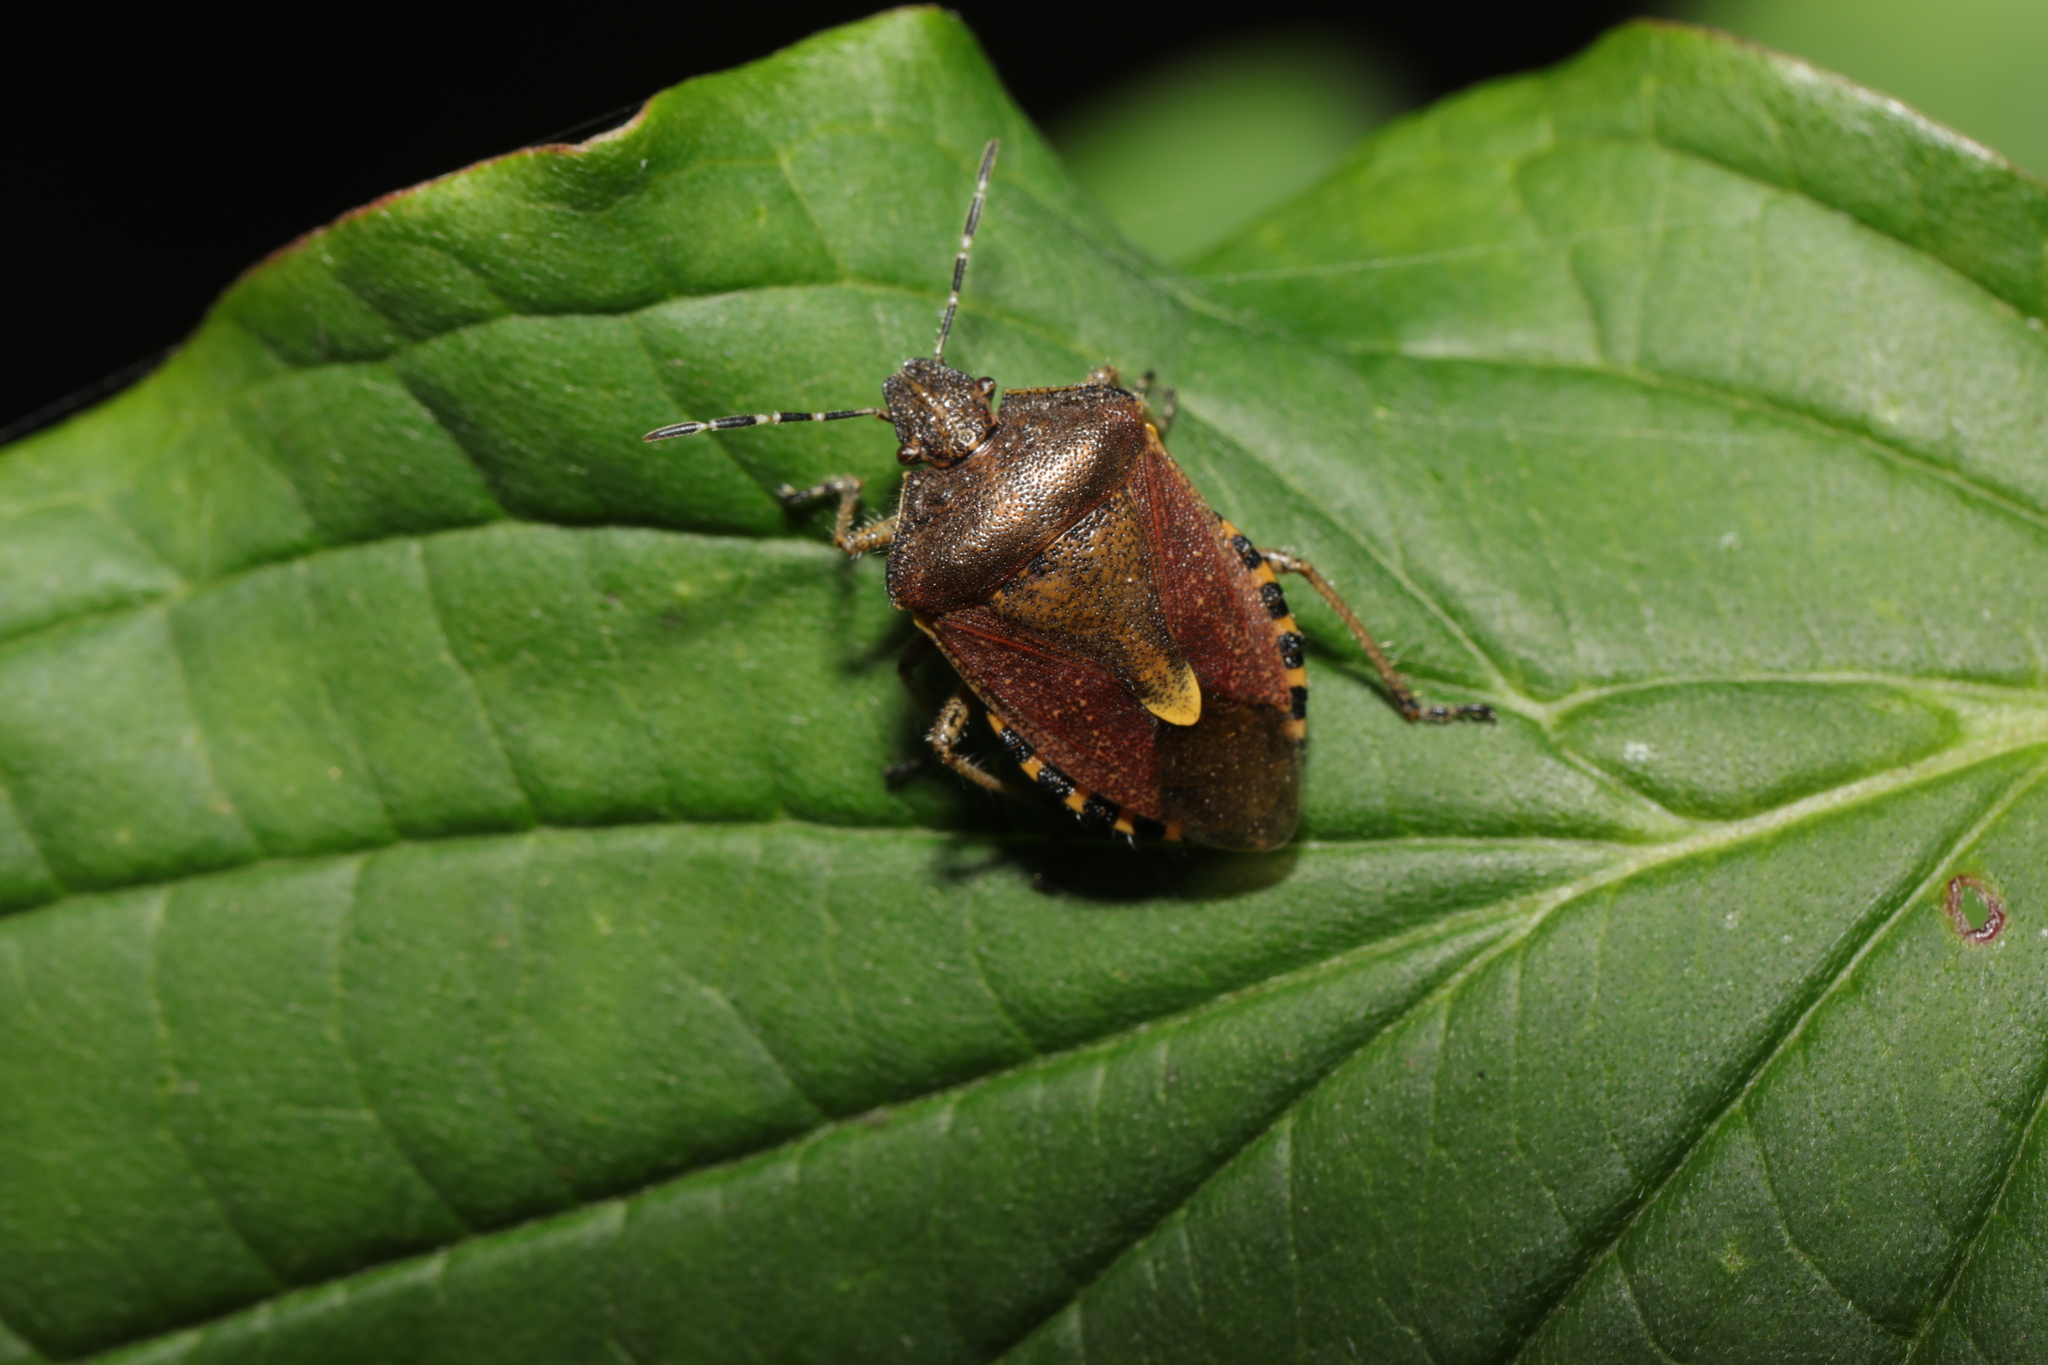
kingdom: Animalia
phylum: Arthropoda
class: Insecta
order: Hemiptera
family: Pentatomidae
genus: Dolycoris
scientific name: Dolycoris baccarum
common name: Sloe bug
